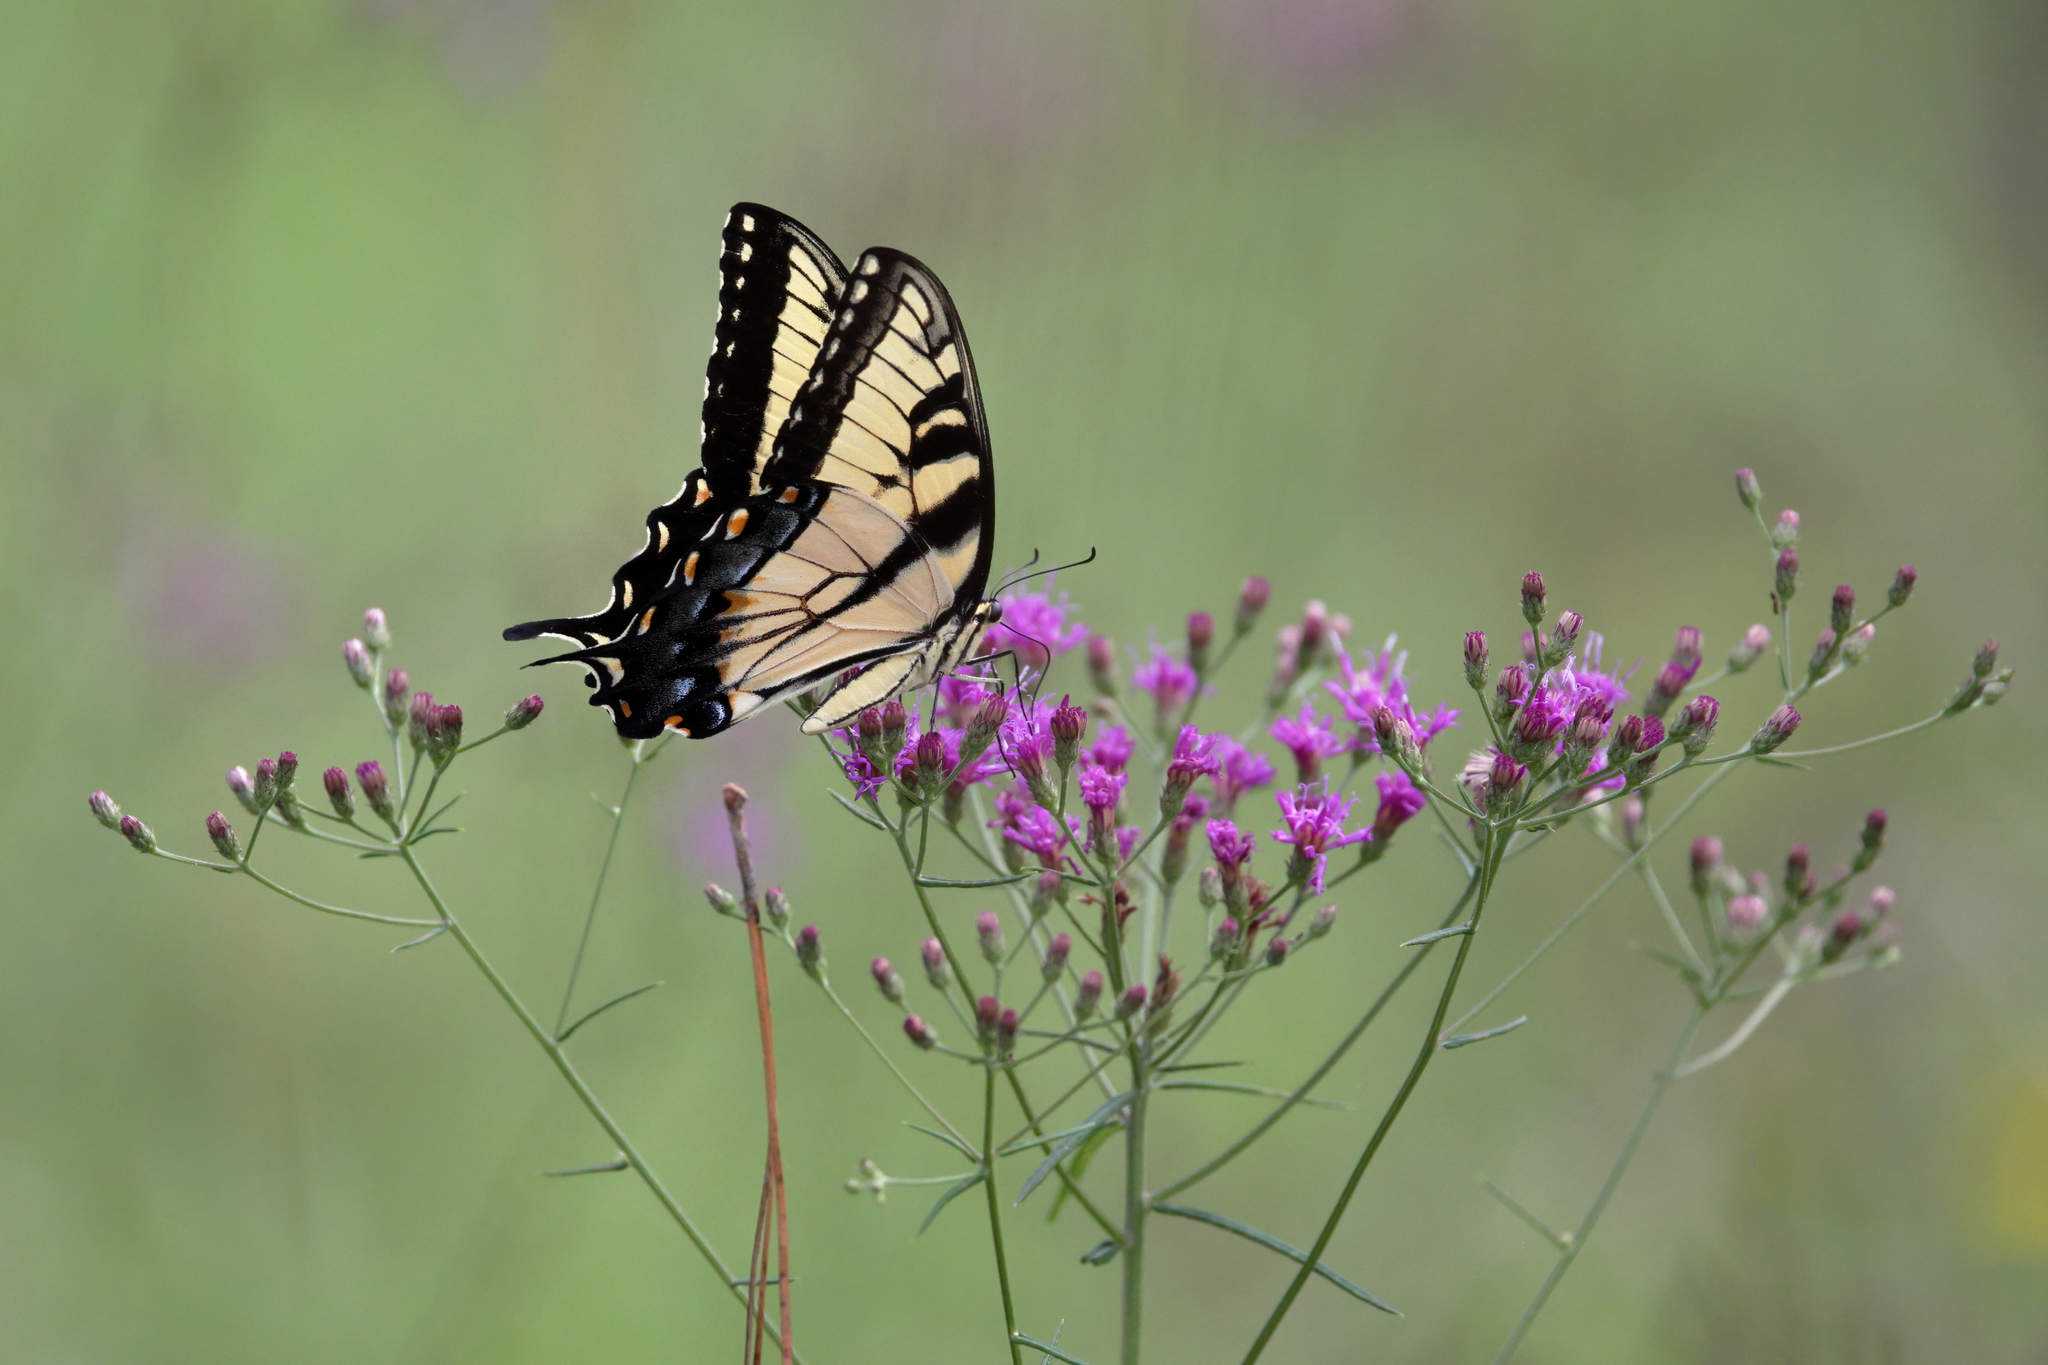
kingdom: Animalia
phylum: Arthropoda
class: Insecta
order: Lepidoptera
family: Papilionidae
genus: Papilio
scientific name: Papilio glaucus
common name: Tiger swallowtail
